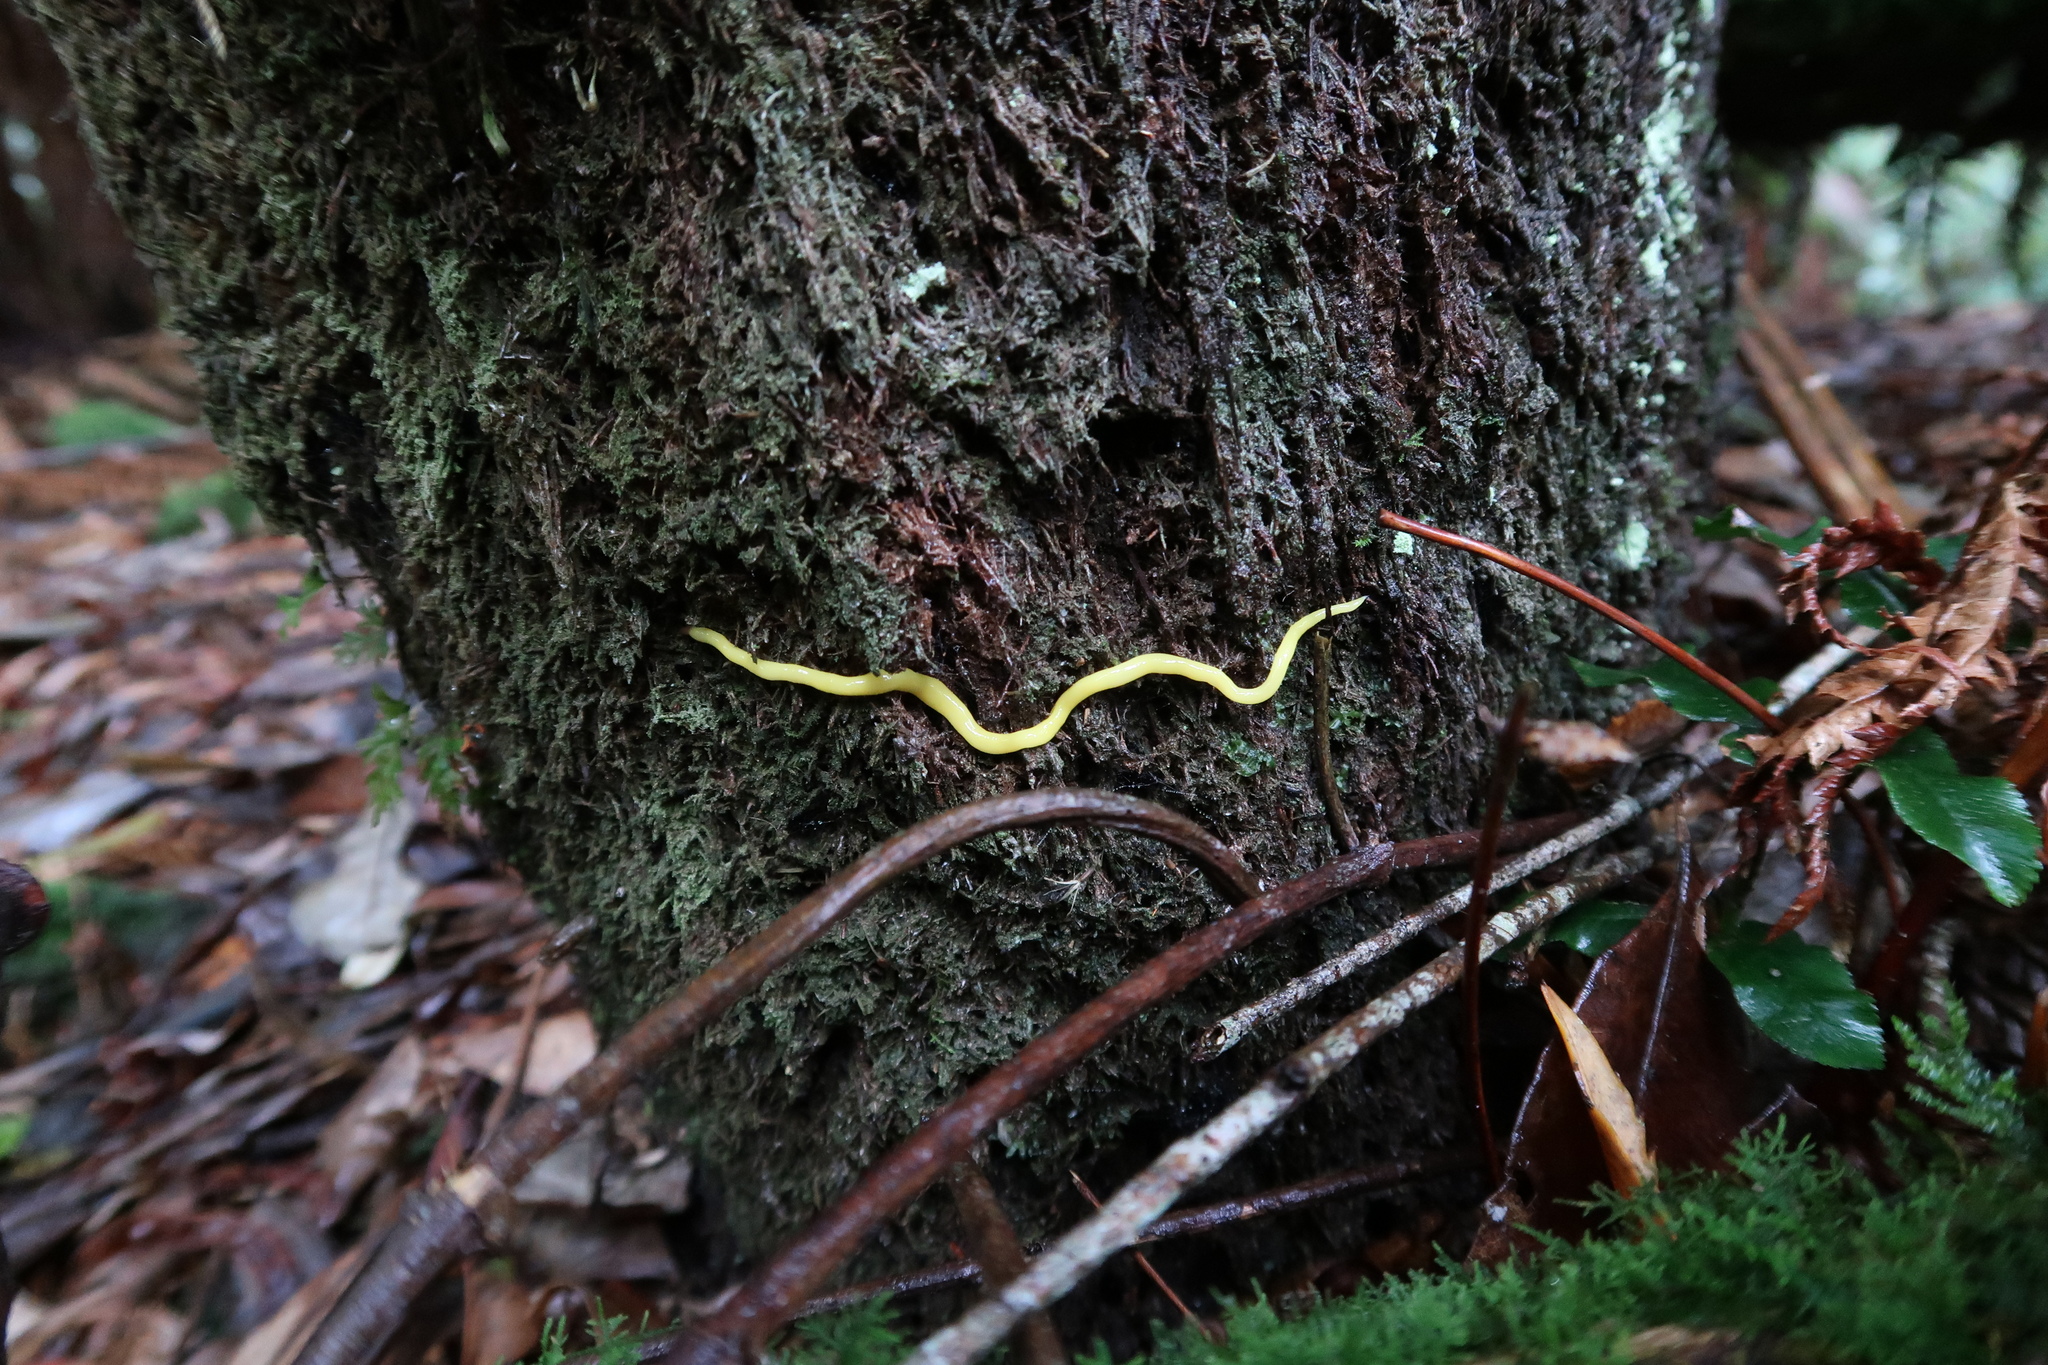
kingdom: Animalia
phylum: Platyhelminthes
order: Tricladida
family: Geoplanidae
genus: Fletchamia
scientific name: Fletchamia sugdeni
